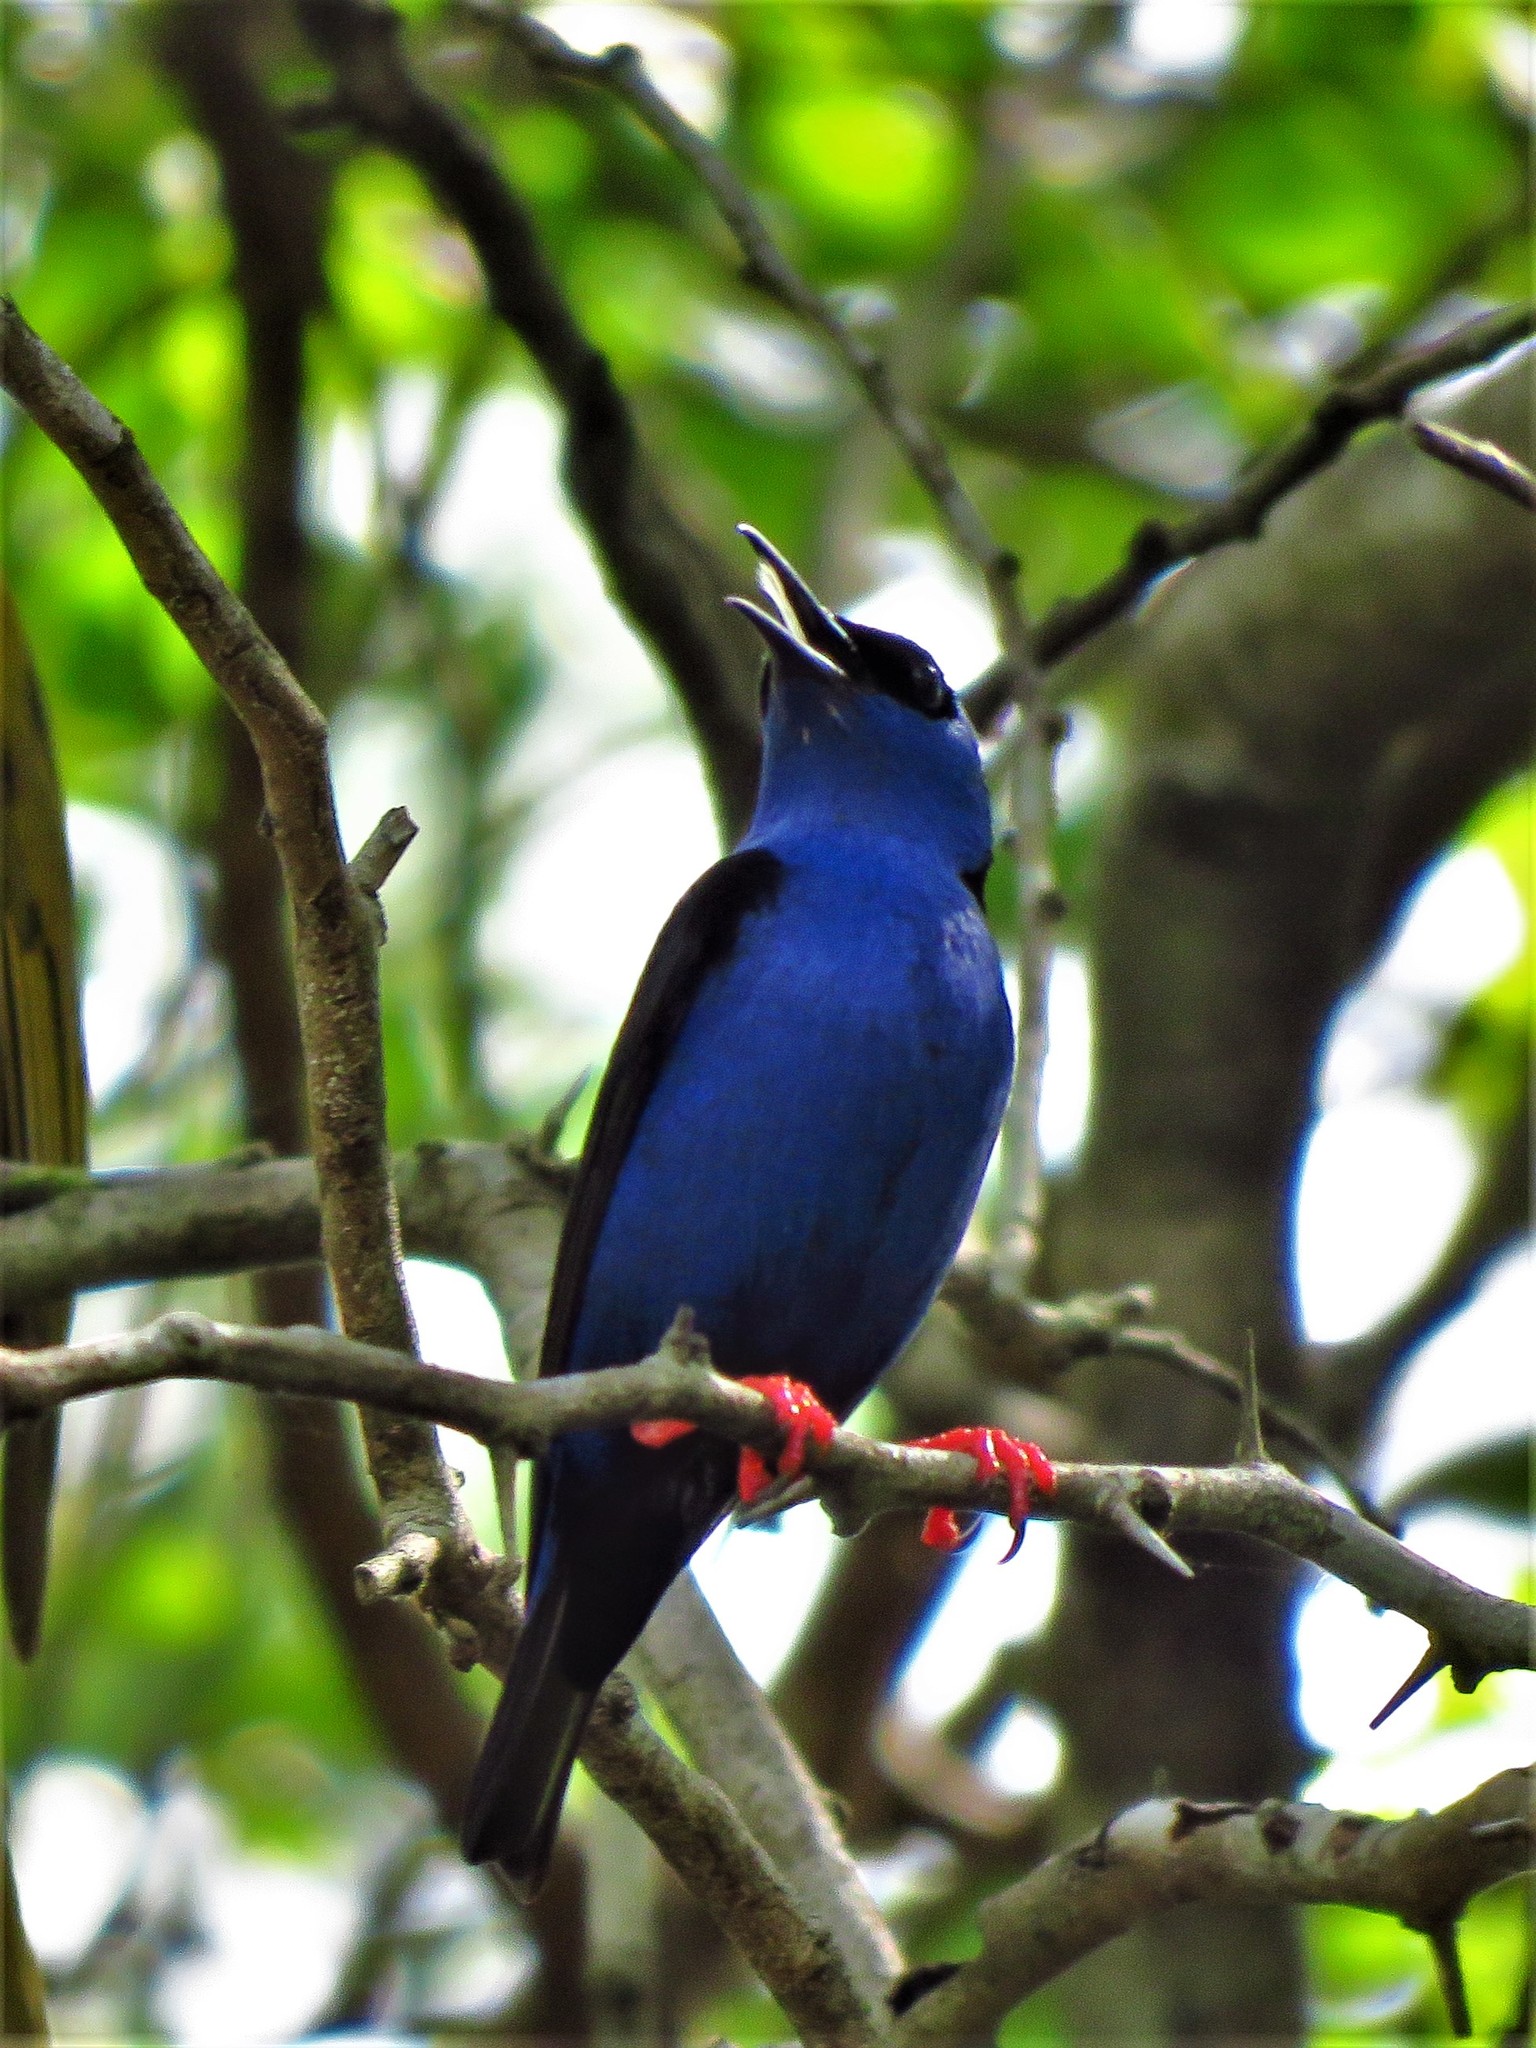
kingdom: Animalia
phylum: Chordata
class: Aves
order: Passeriformes
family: Thraupidae
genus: Cyanerpes
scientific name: Cyanerpes cyaneus
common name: Red-legged honeycreeper
